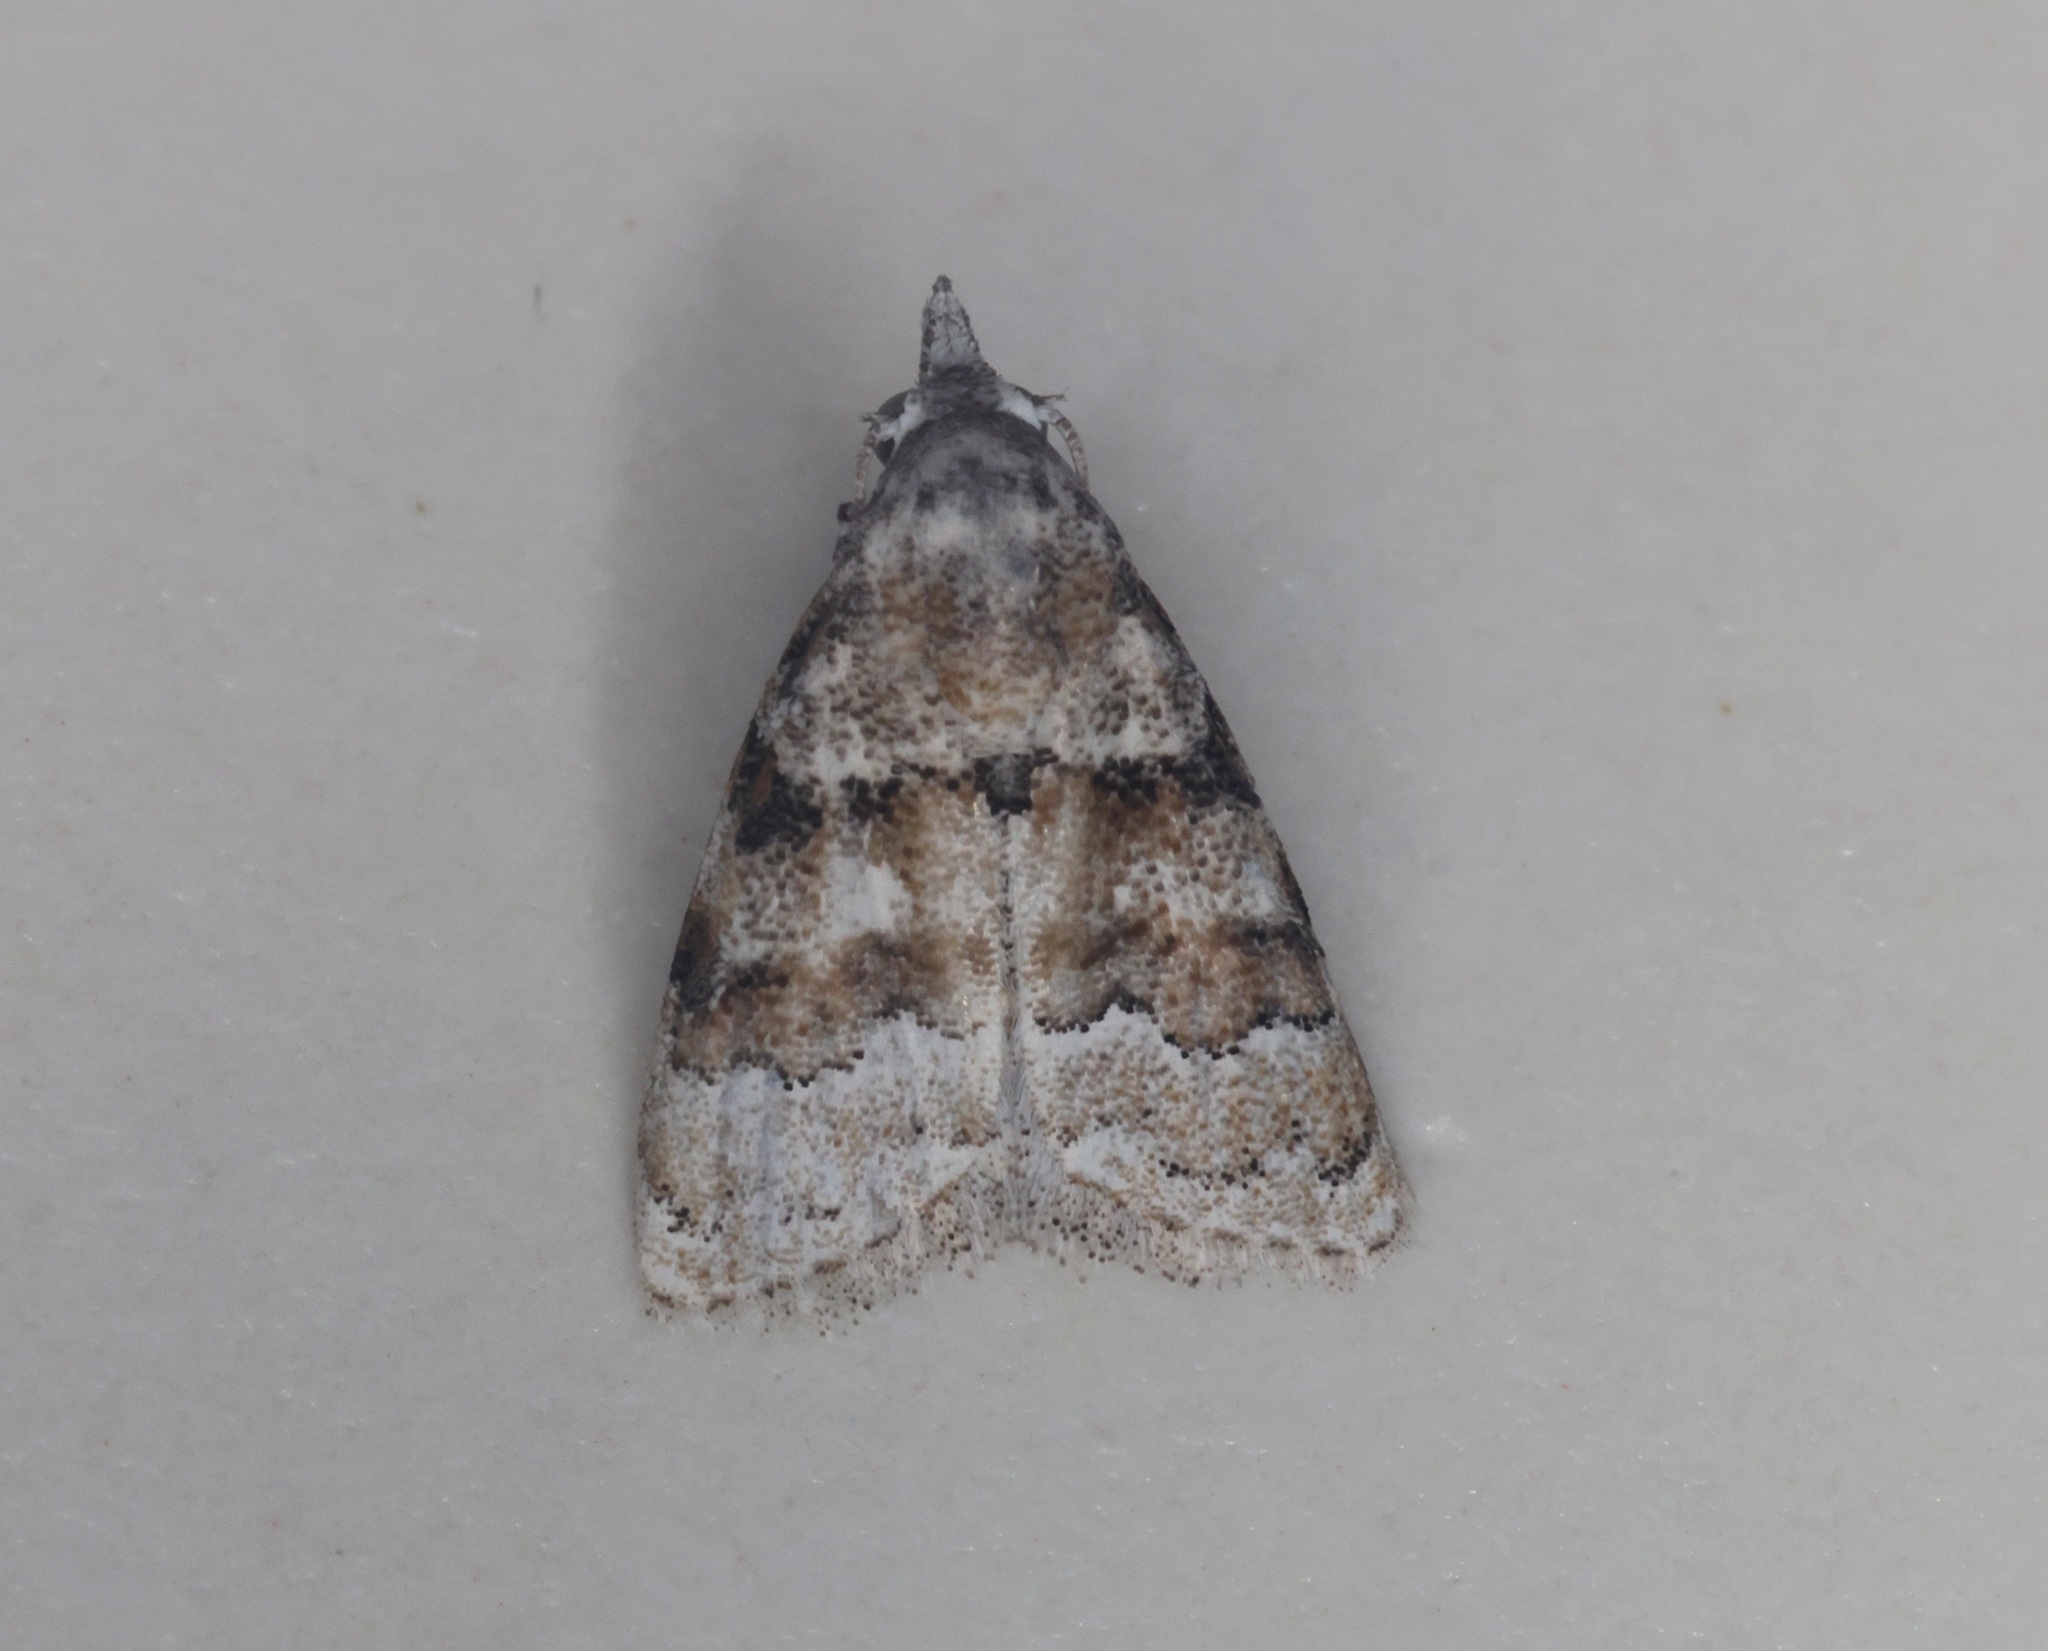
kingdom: Animalia
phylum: Arthropoda
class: Insecta
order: Lepidoptera
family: Nolidae
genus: Nola
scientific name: Nola bifascialis
